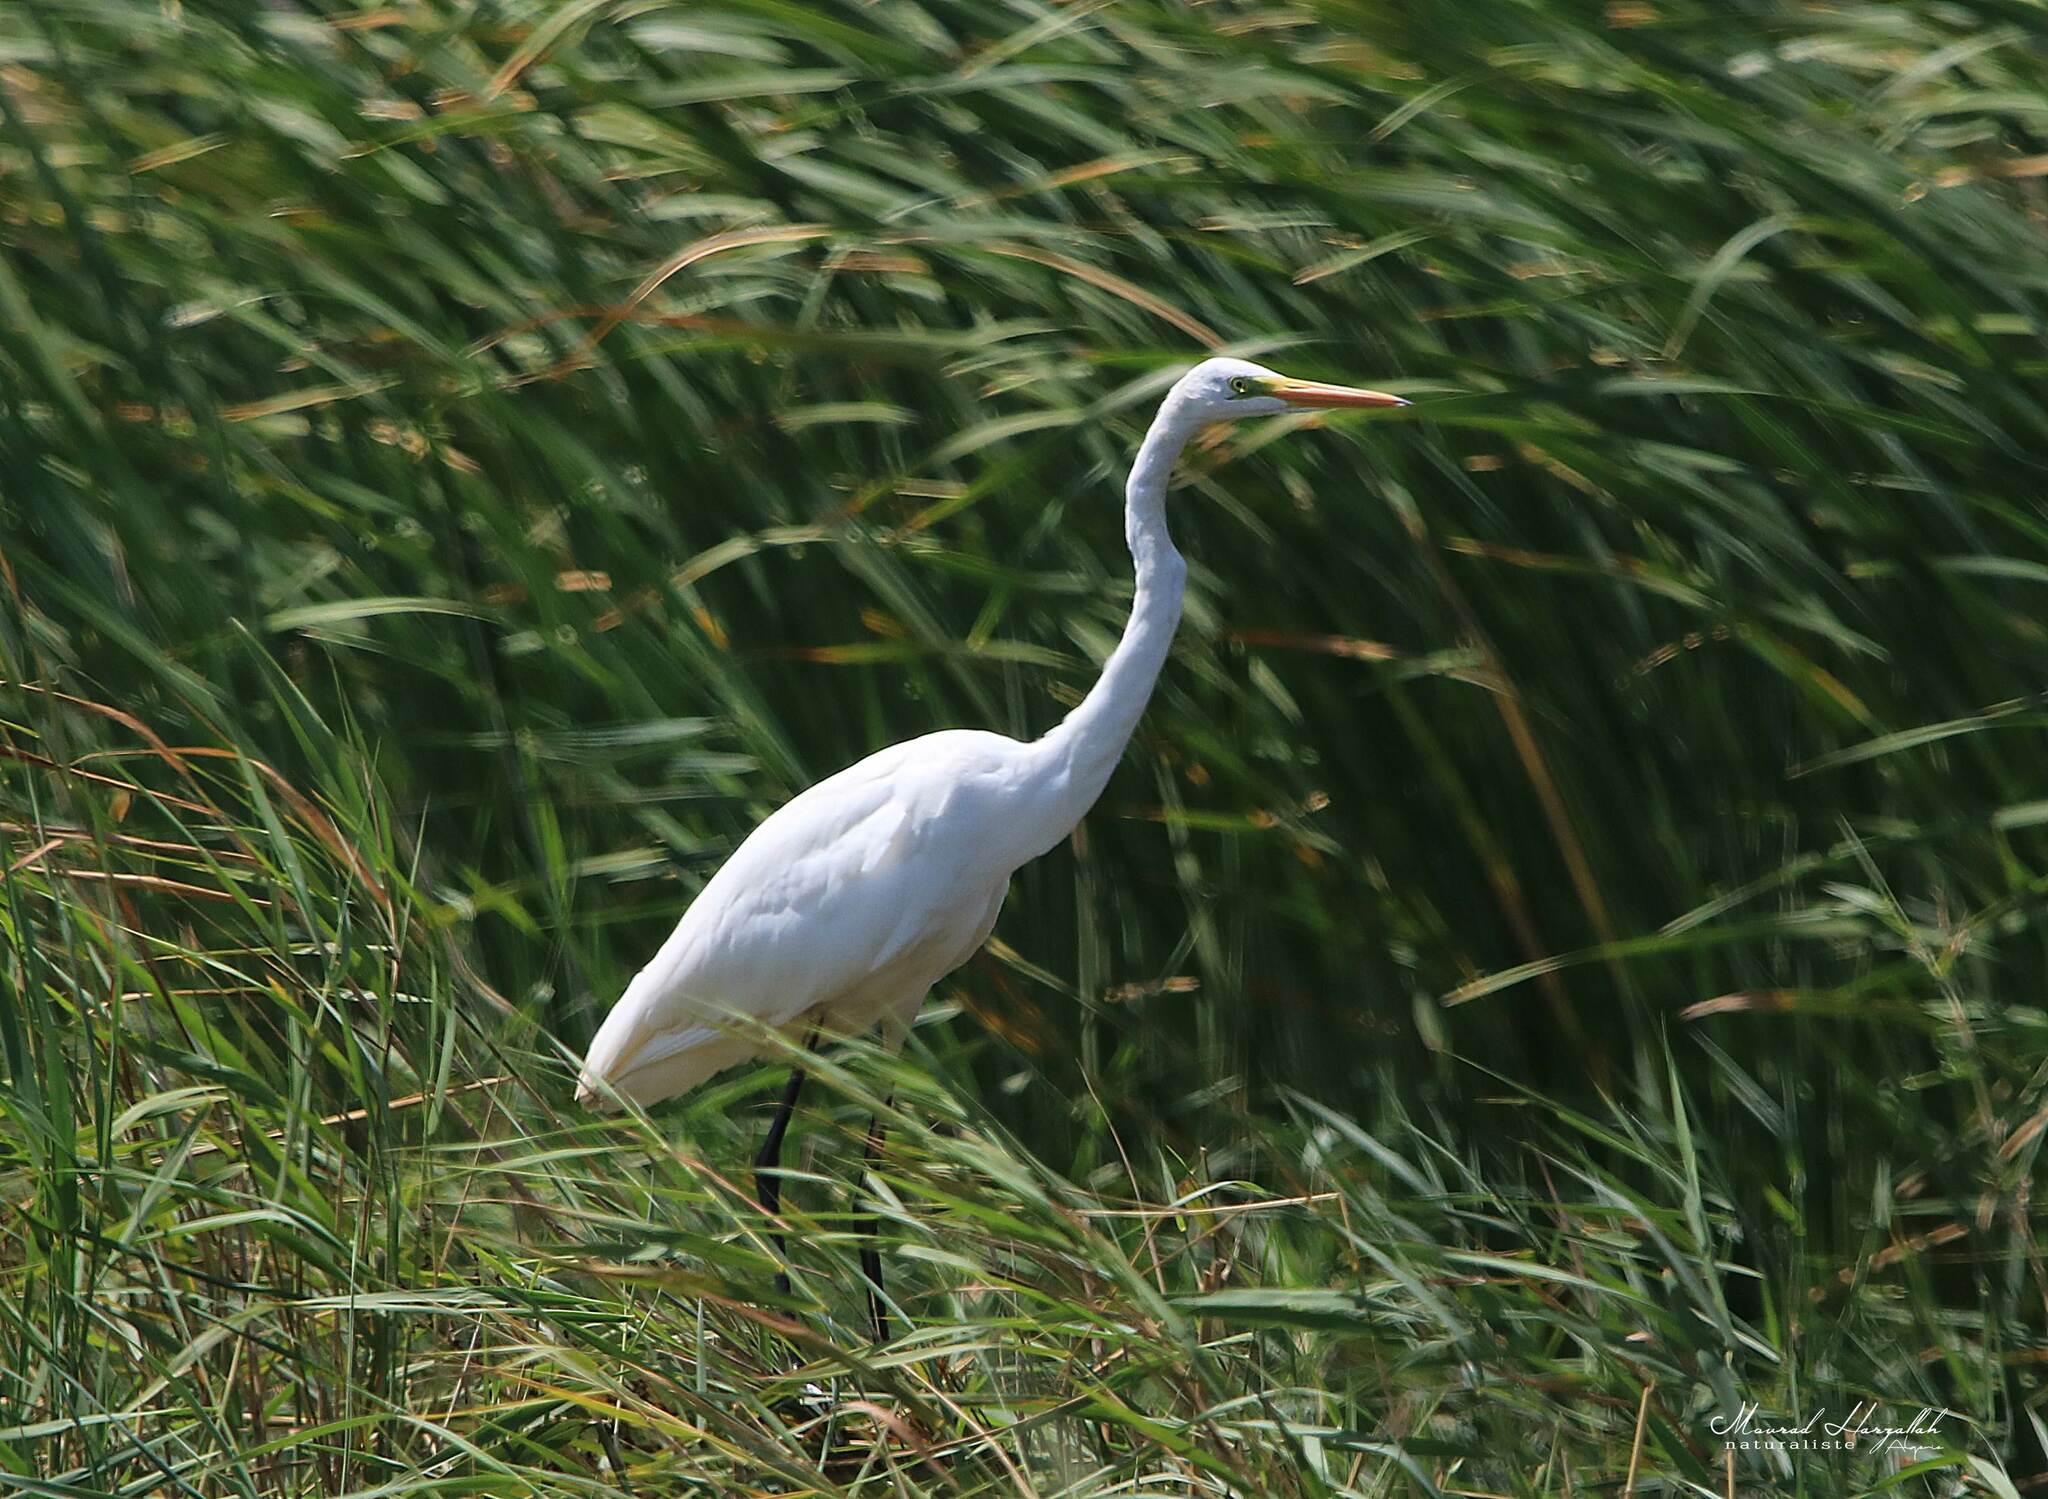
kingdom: Animalia
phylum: Chordata
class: Aves
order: Pelecaniformes
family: Ardeidae
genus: Ardea
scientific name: Ardea alba
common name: Great egret
